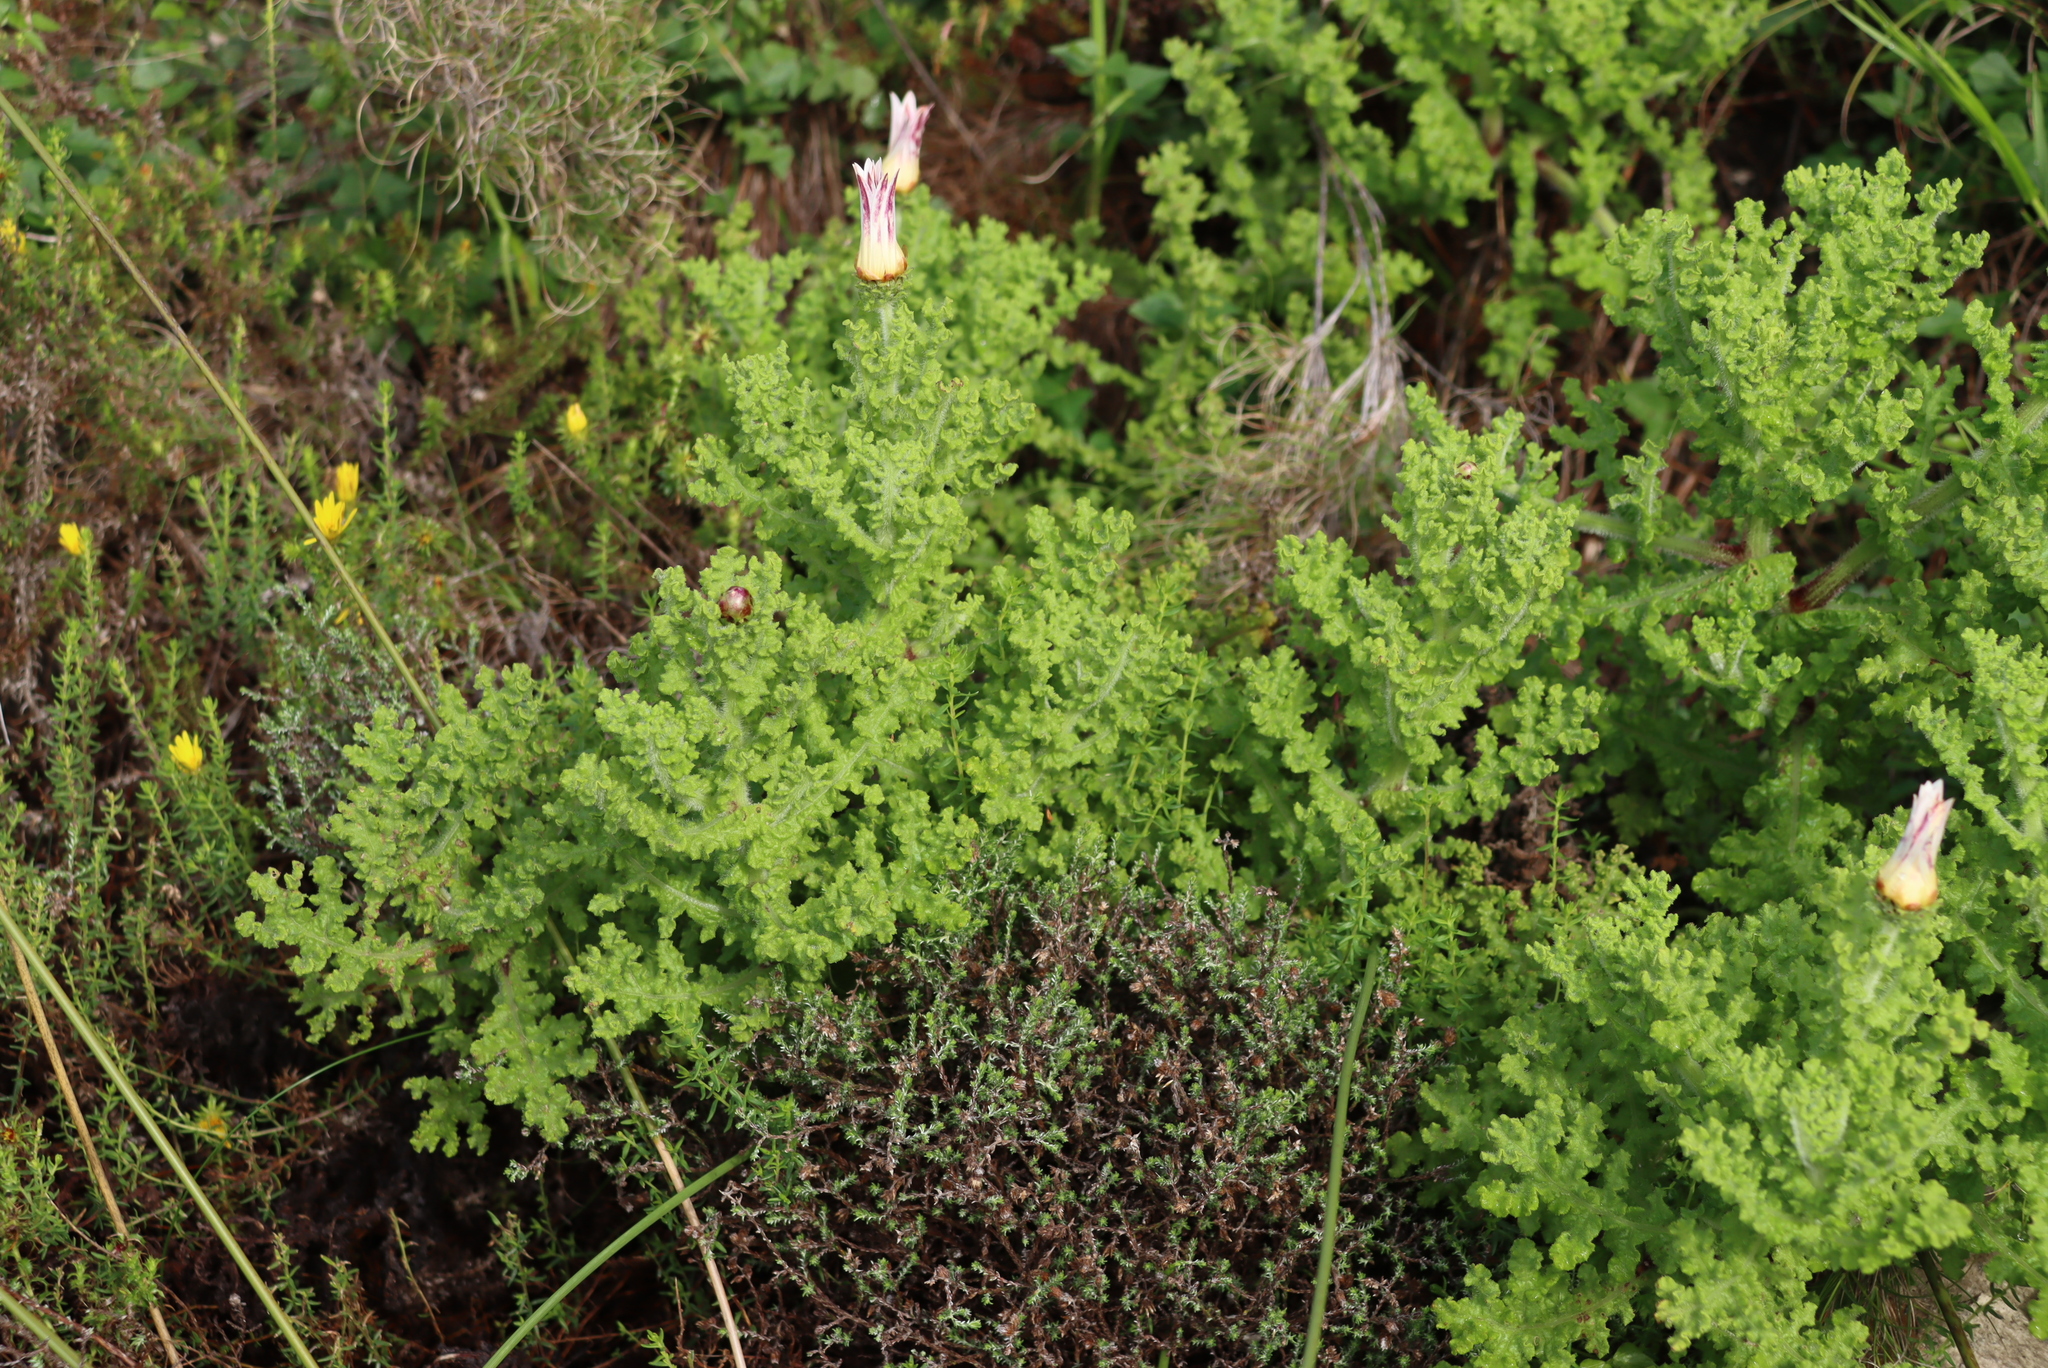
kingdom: Plantae
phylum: Tracheophyta
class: Magnoliopsida
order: Asterales
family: Asteraceae
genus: Arctotis
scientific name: Arctotis aspera
